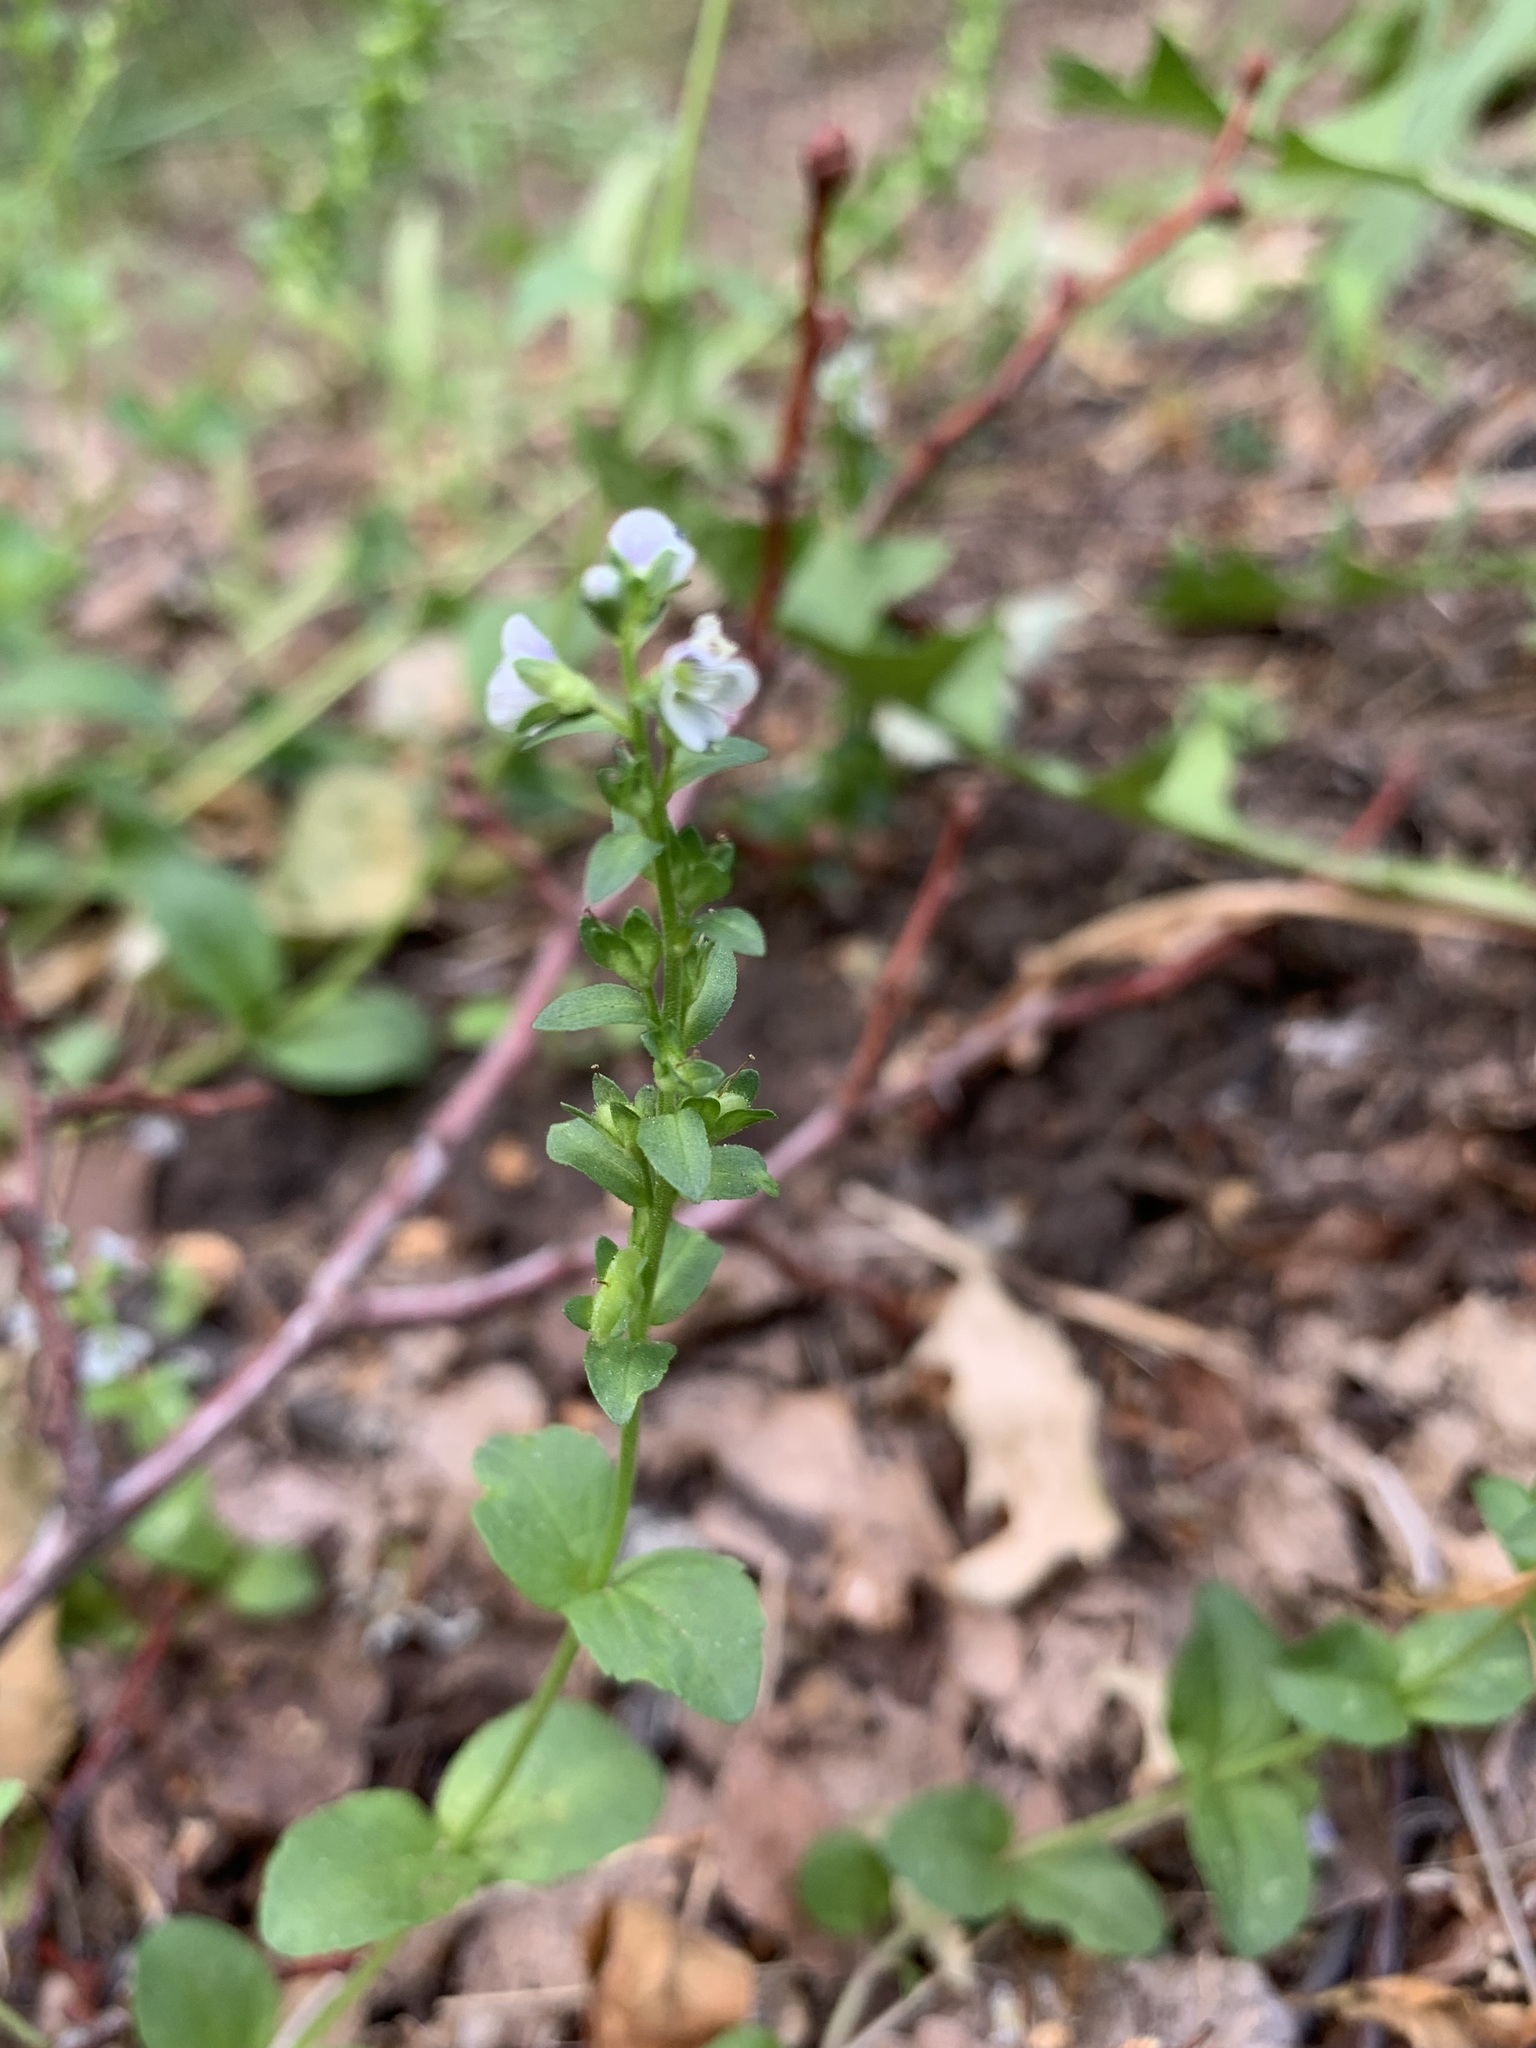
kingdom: Plantae
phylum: Tracheophyta
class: Magnoliopsida
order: Lamiales
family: Plantaginaceae
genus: Veronica
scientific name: Veronica serpyllifolia
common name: Thyme-leaved speedwell
